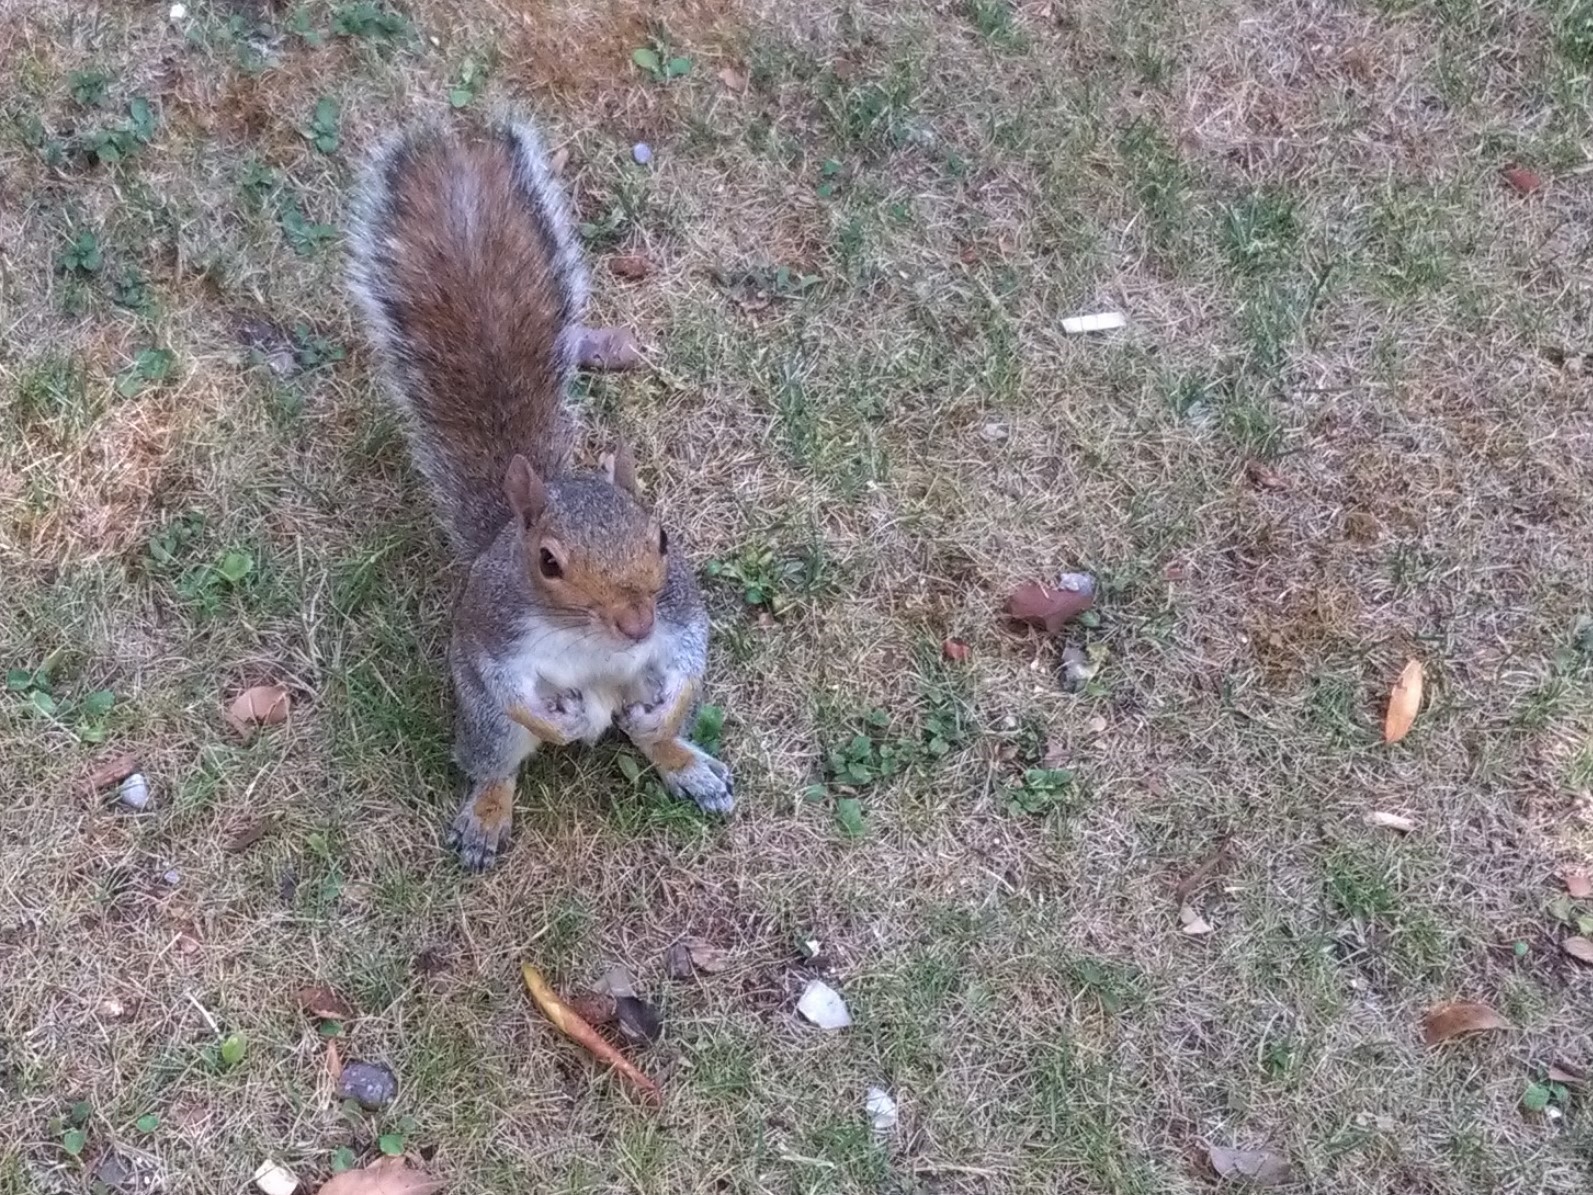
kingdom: Animalia
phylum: Chordata
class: Mammalia
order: Rodentia
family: Sciuridae
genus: Sciurus
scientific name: Sciurus carolinensis
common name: Eastern gray squirrel
